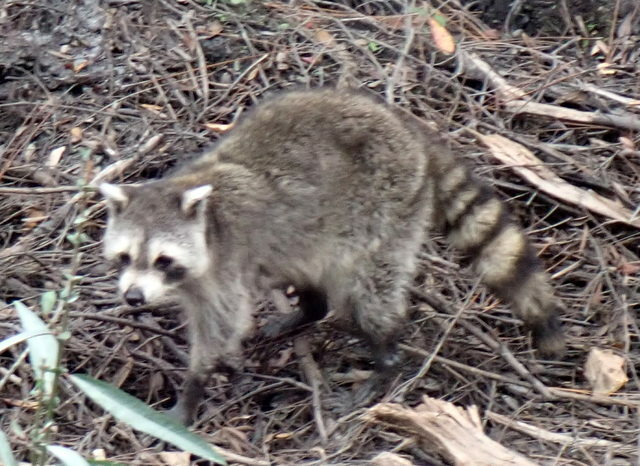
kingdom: Animalia
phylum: Chordata
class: Mammalia
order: Carnivora
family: Procyonidae
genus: Procyon
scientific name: Procyon lotor
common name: Raccoon
